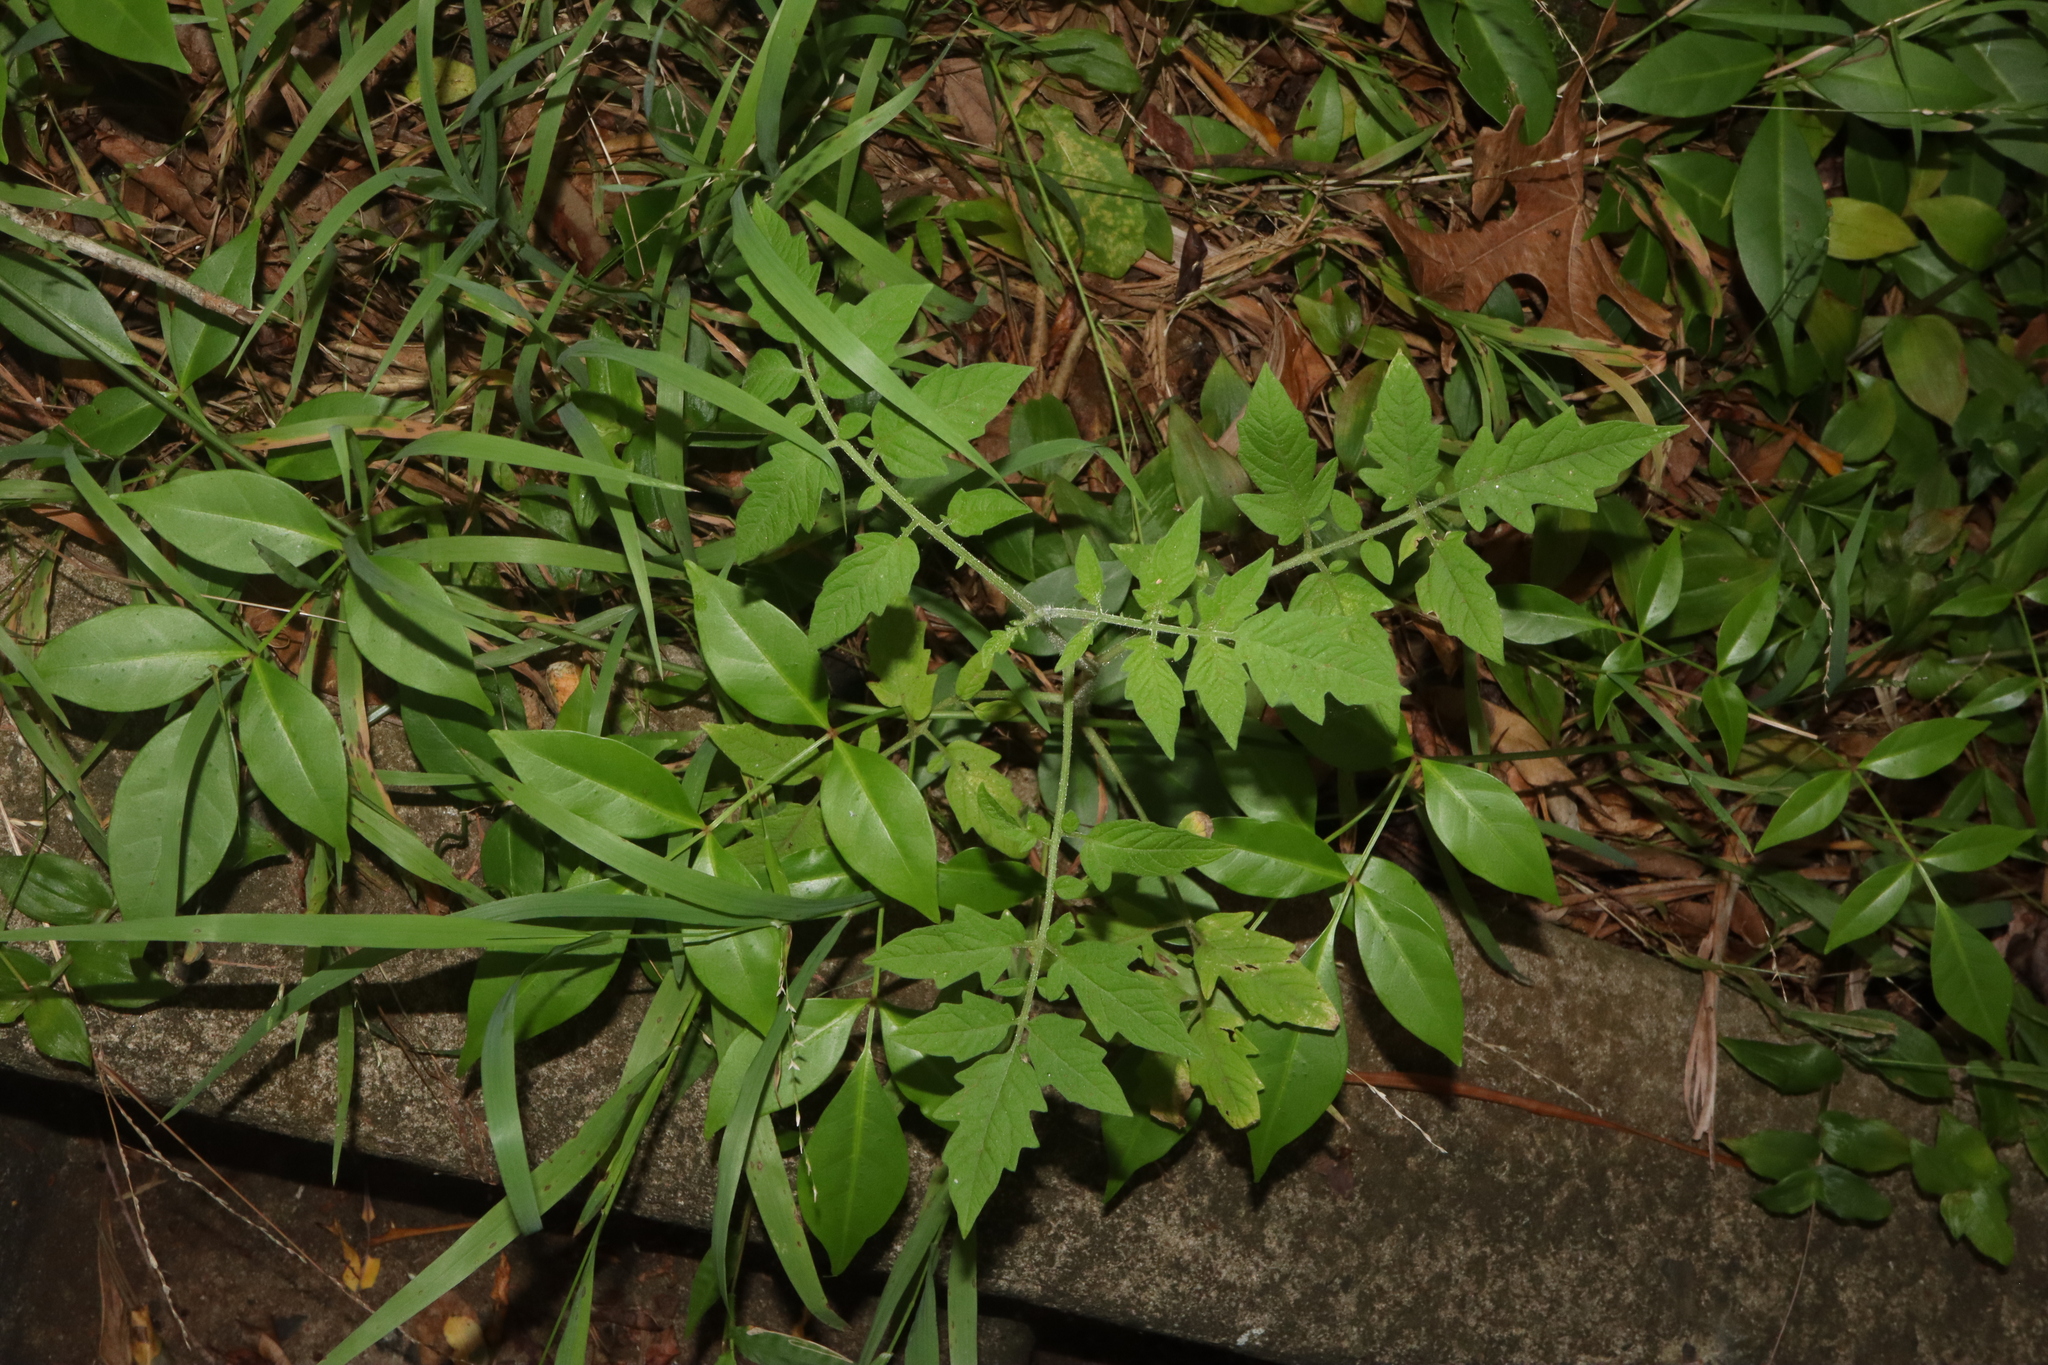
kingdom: Plantae
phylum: Tracheophyta
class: Magnoliopsida
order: Solanales
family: Solanaceae
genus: Solanum
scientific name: Solanum lycopersicum
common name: Garden tomato
